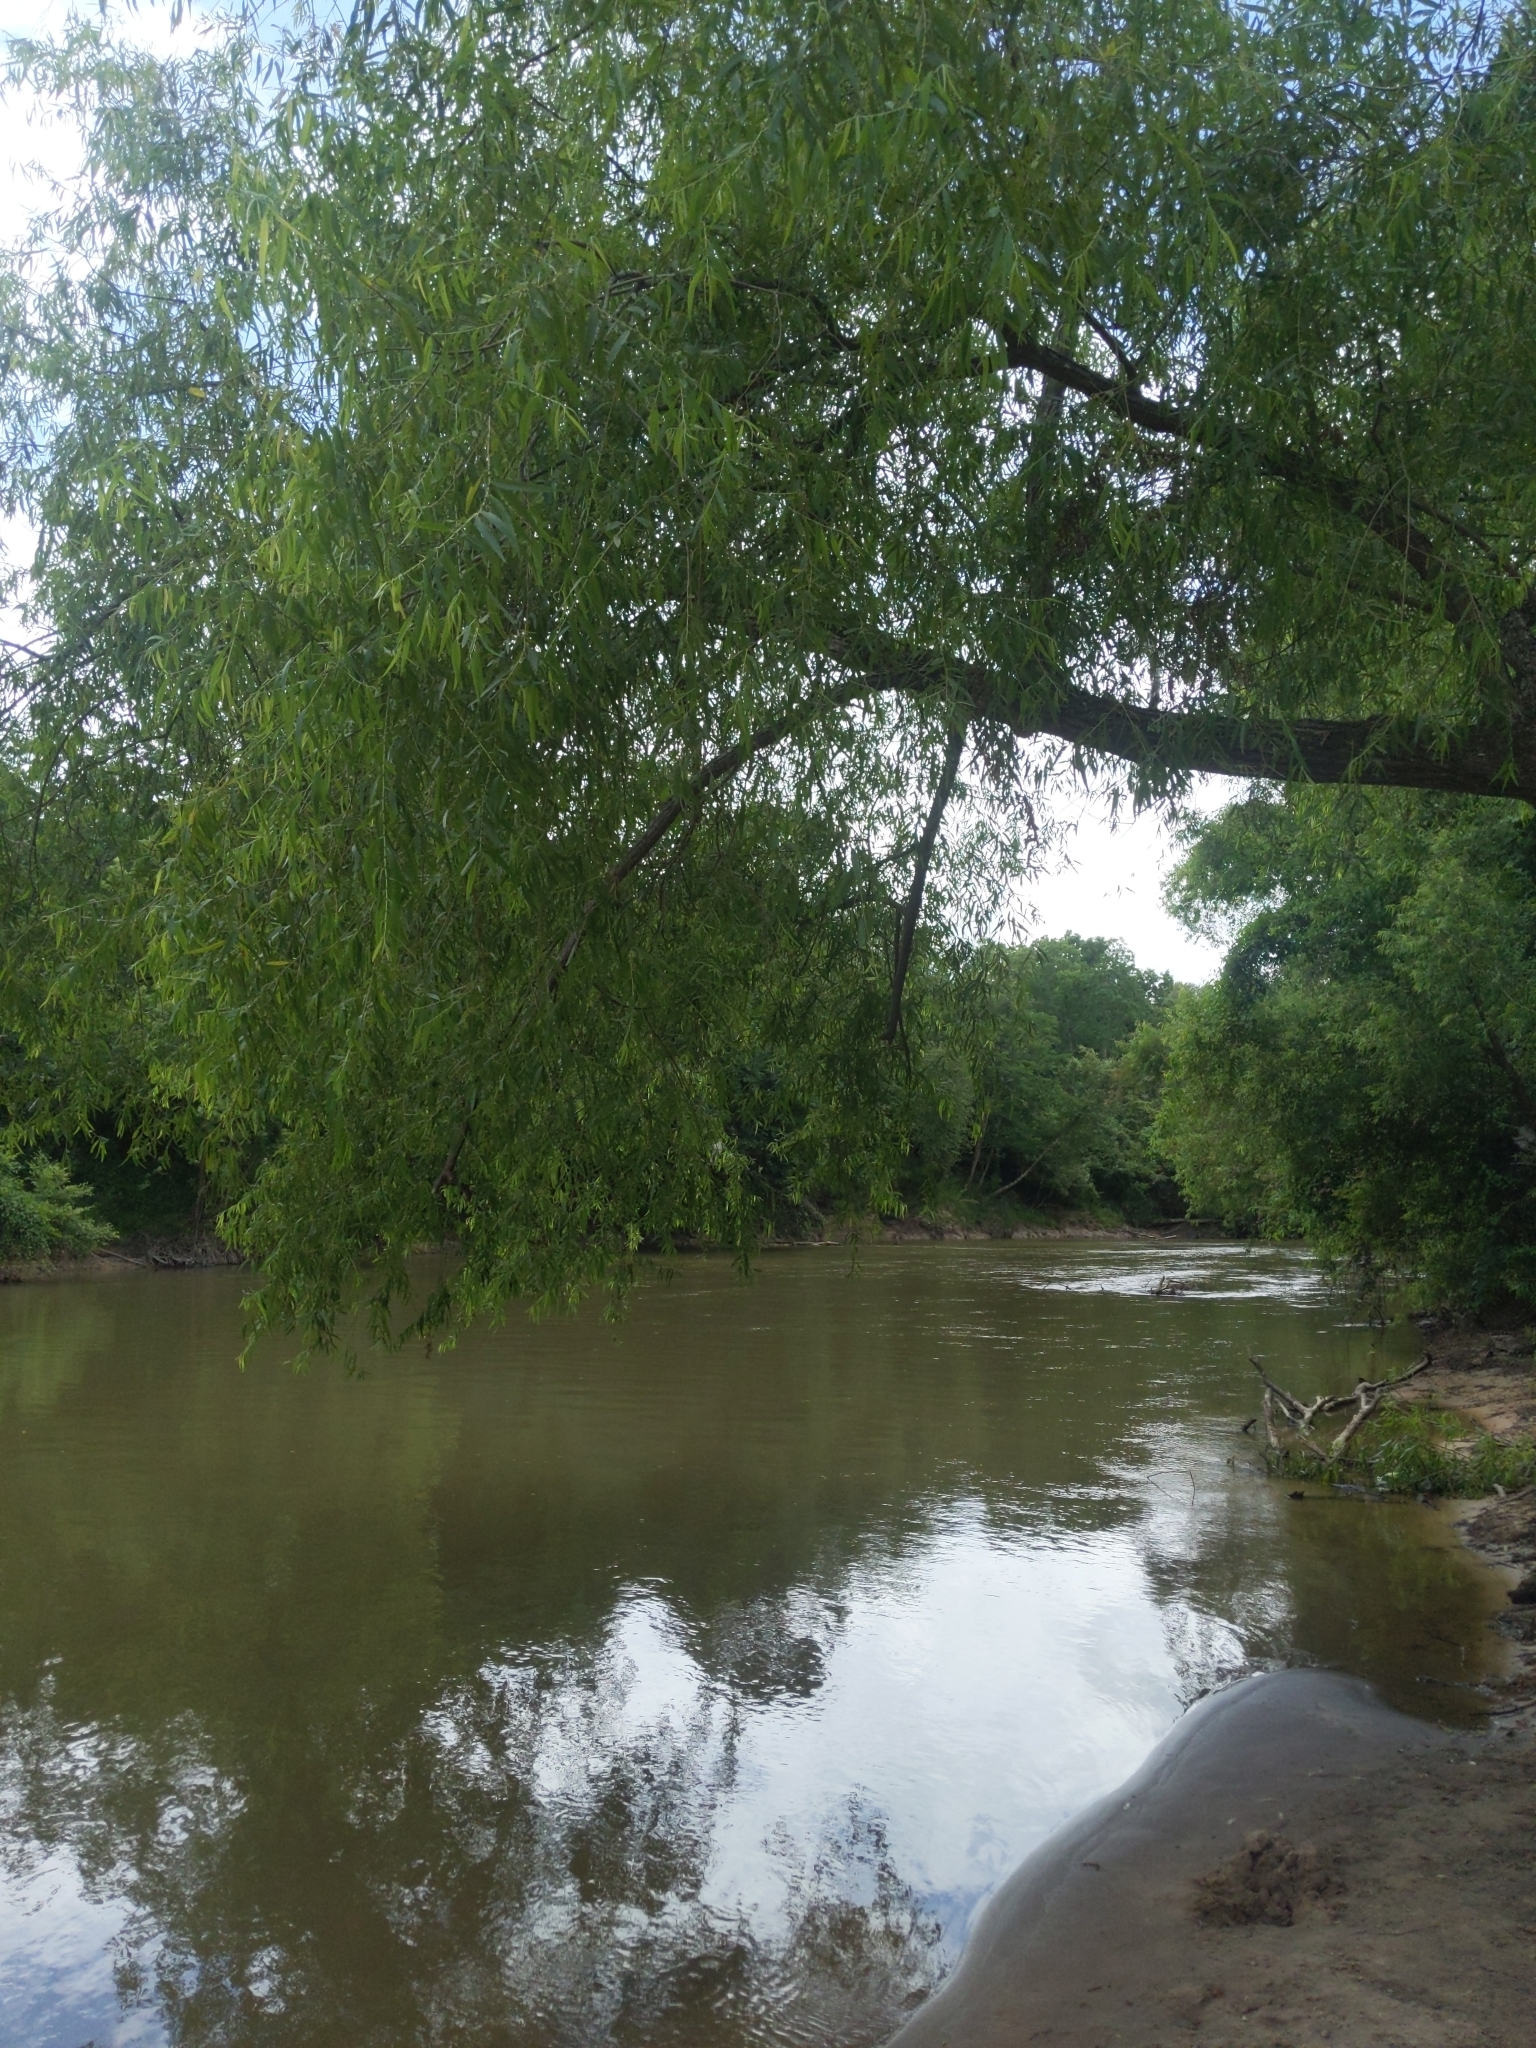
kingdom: Plantae
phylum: Tracheophyta
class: Magnoliopsida
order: Malpighiales
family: Salicaceae
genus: Salix
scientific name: Salix nigra
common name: Black willow
